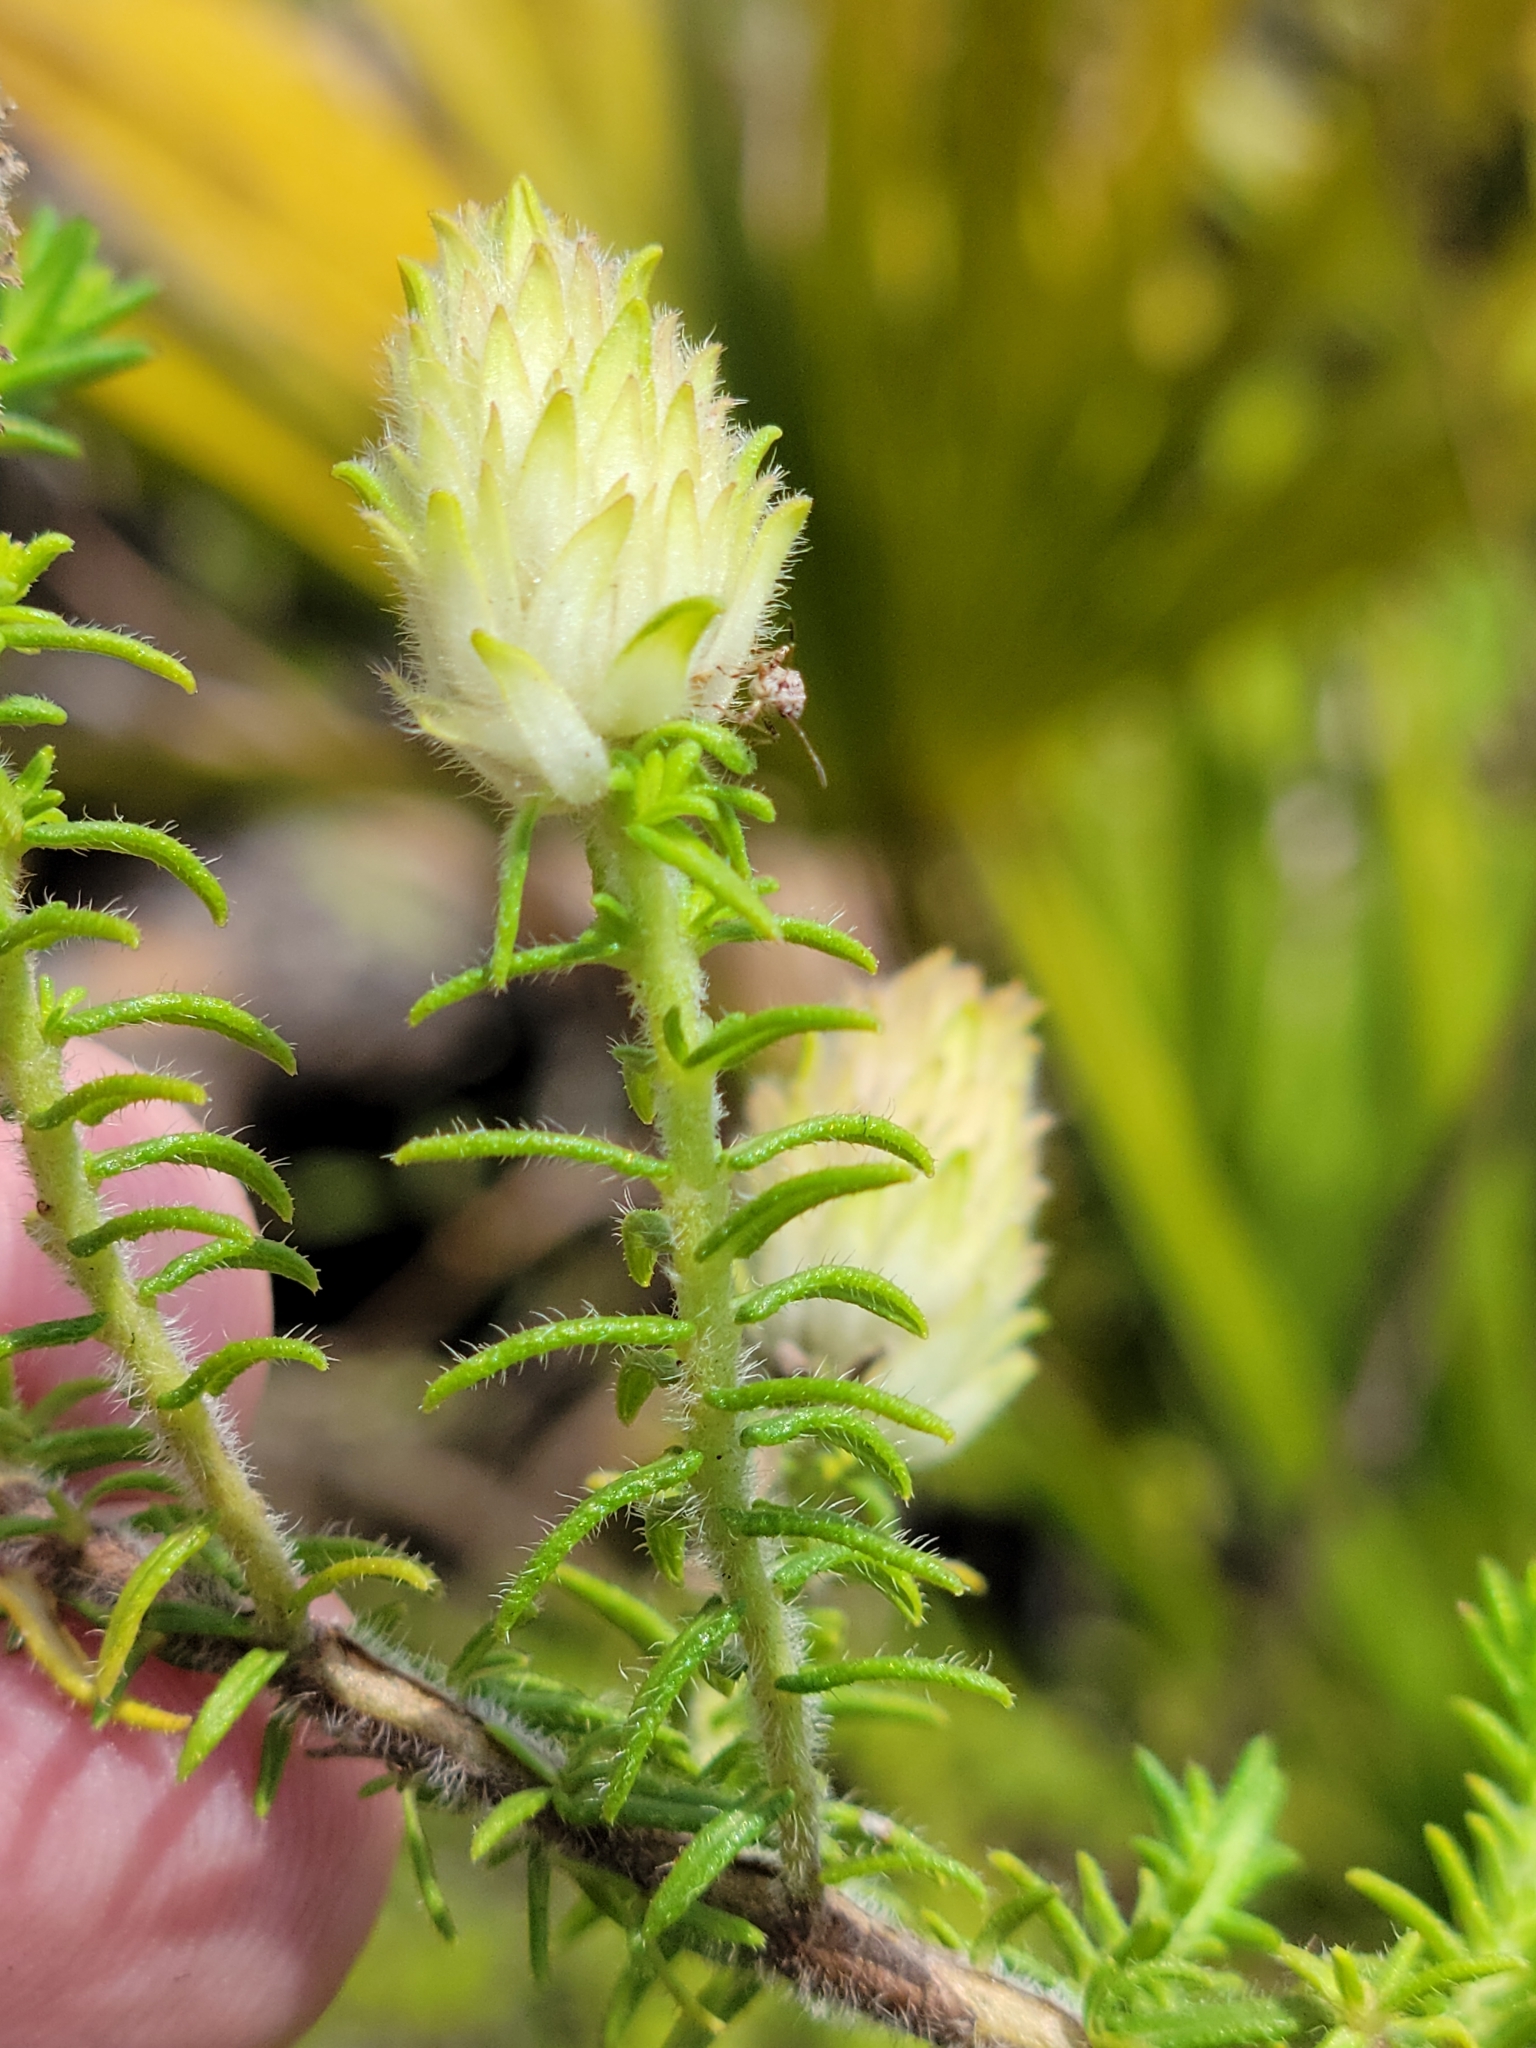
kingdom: Plantae
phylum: Tracheophyta
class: Magnoliopsida
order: Lamiales
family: Lamiaceae
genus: Piloblephis
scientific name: Piloblephis rigida
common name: Wild pennyroyal
